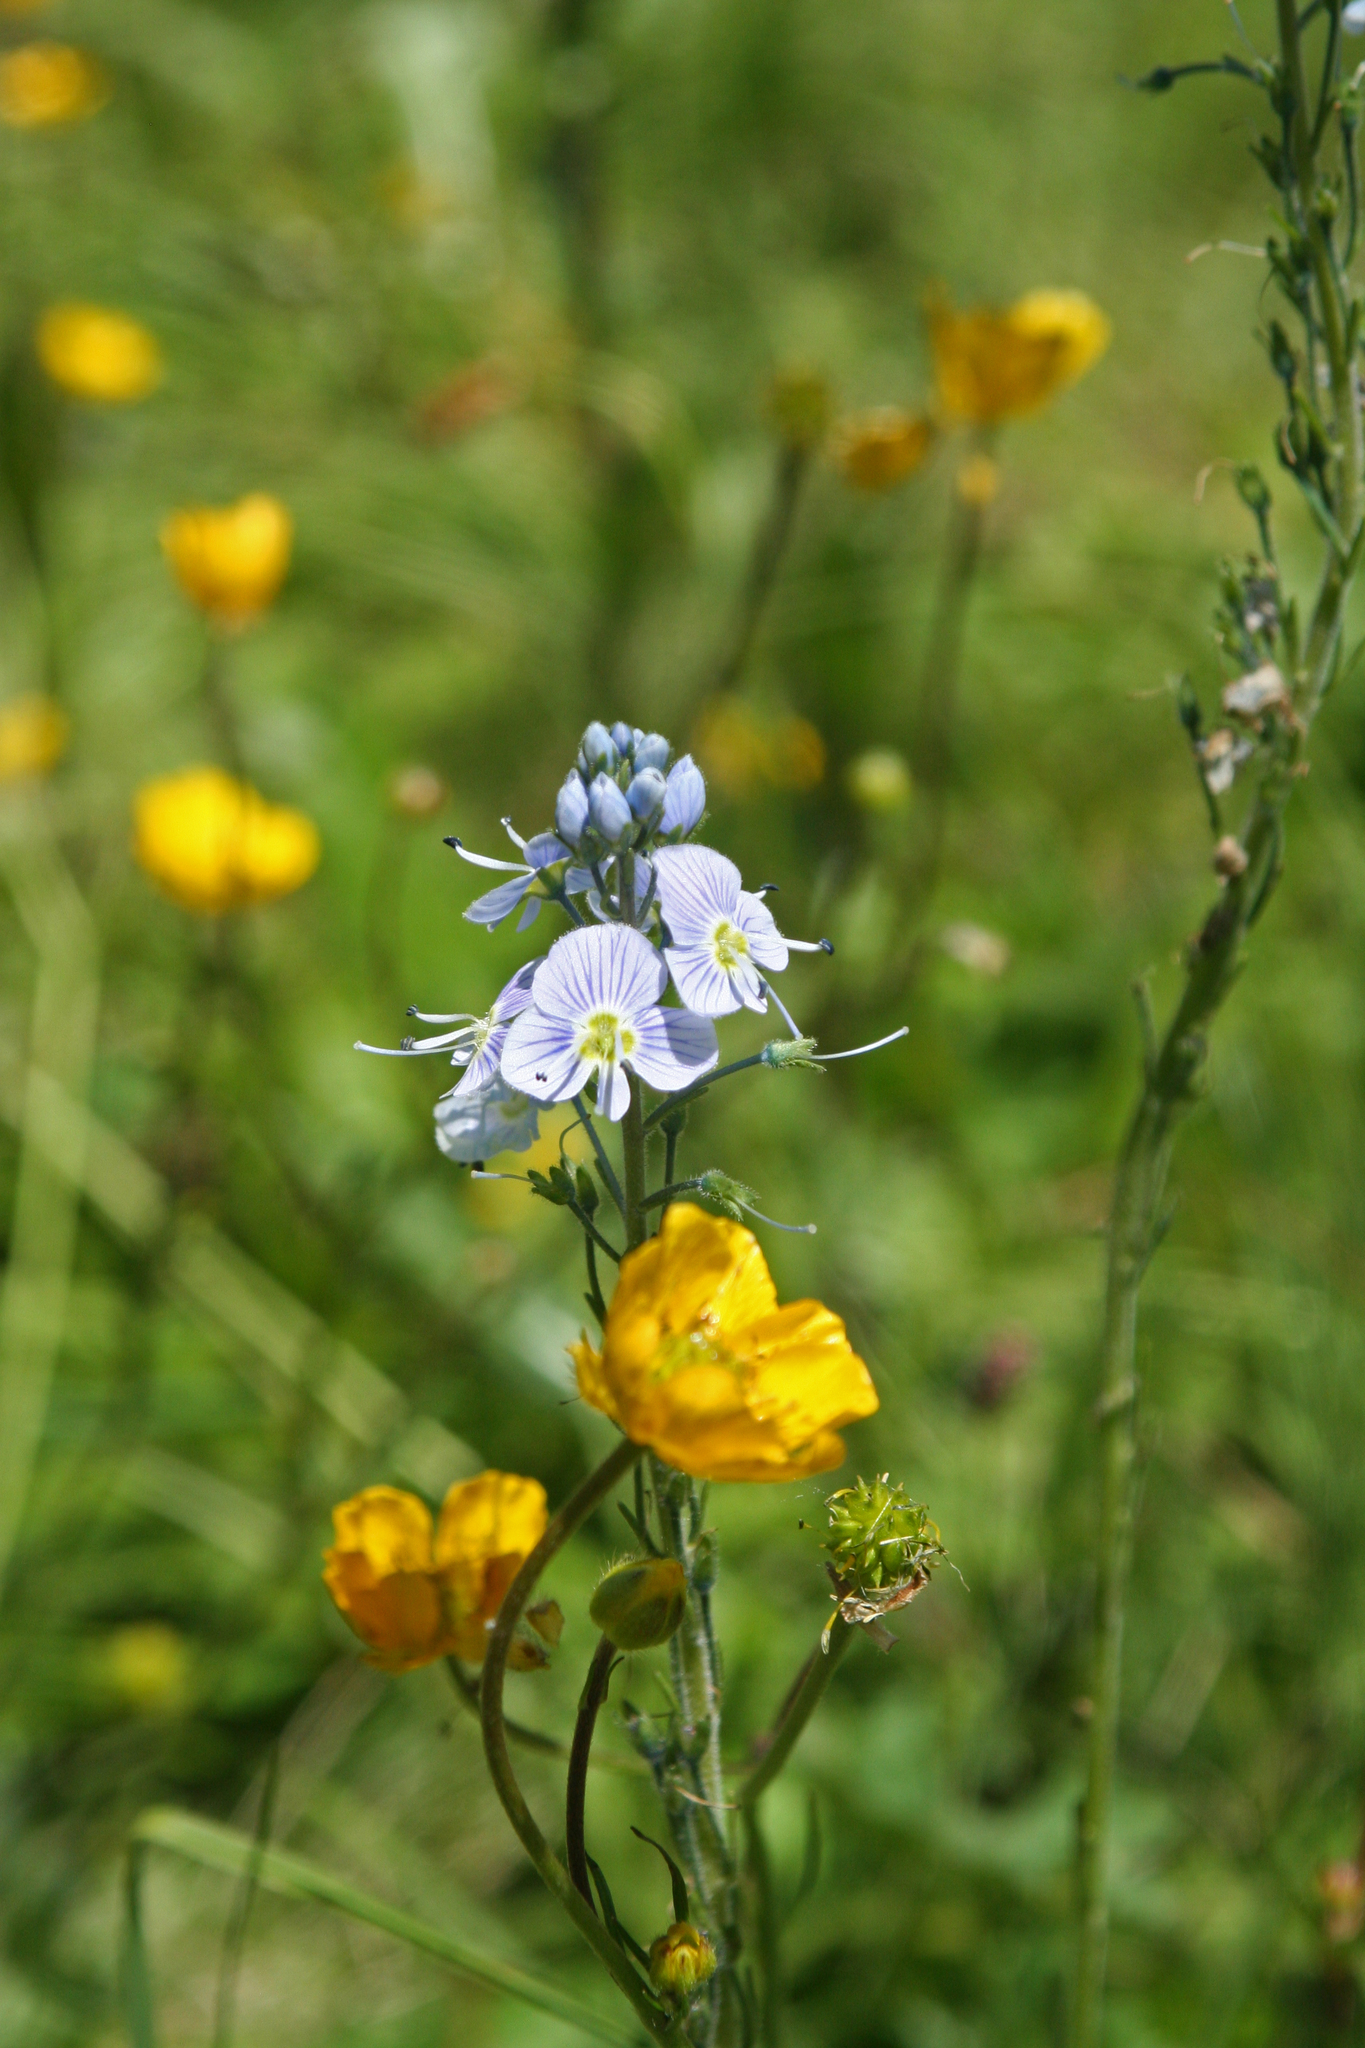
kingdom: Plantae
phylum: Tracheophyta
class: Magnoliopsida
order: Lamiales
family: Plantaginaceae
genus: Veronica
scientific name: Veronica gentianoides
